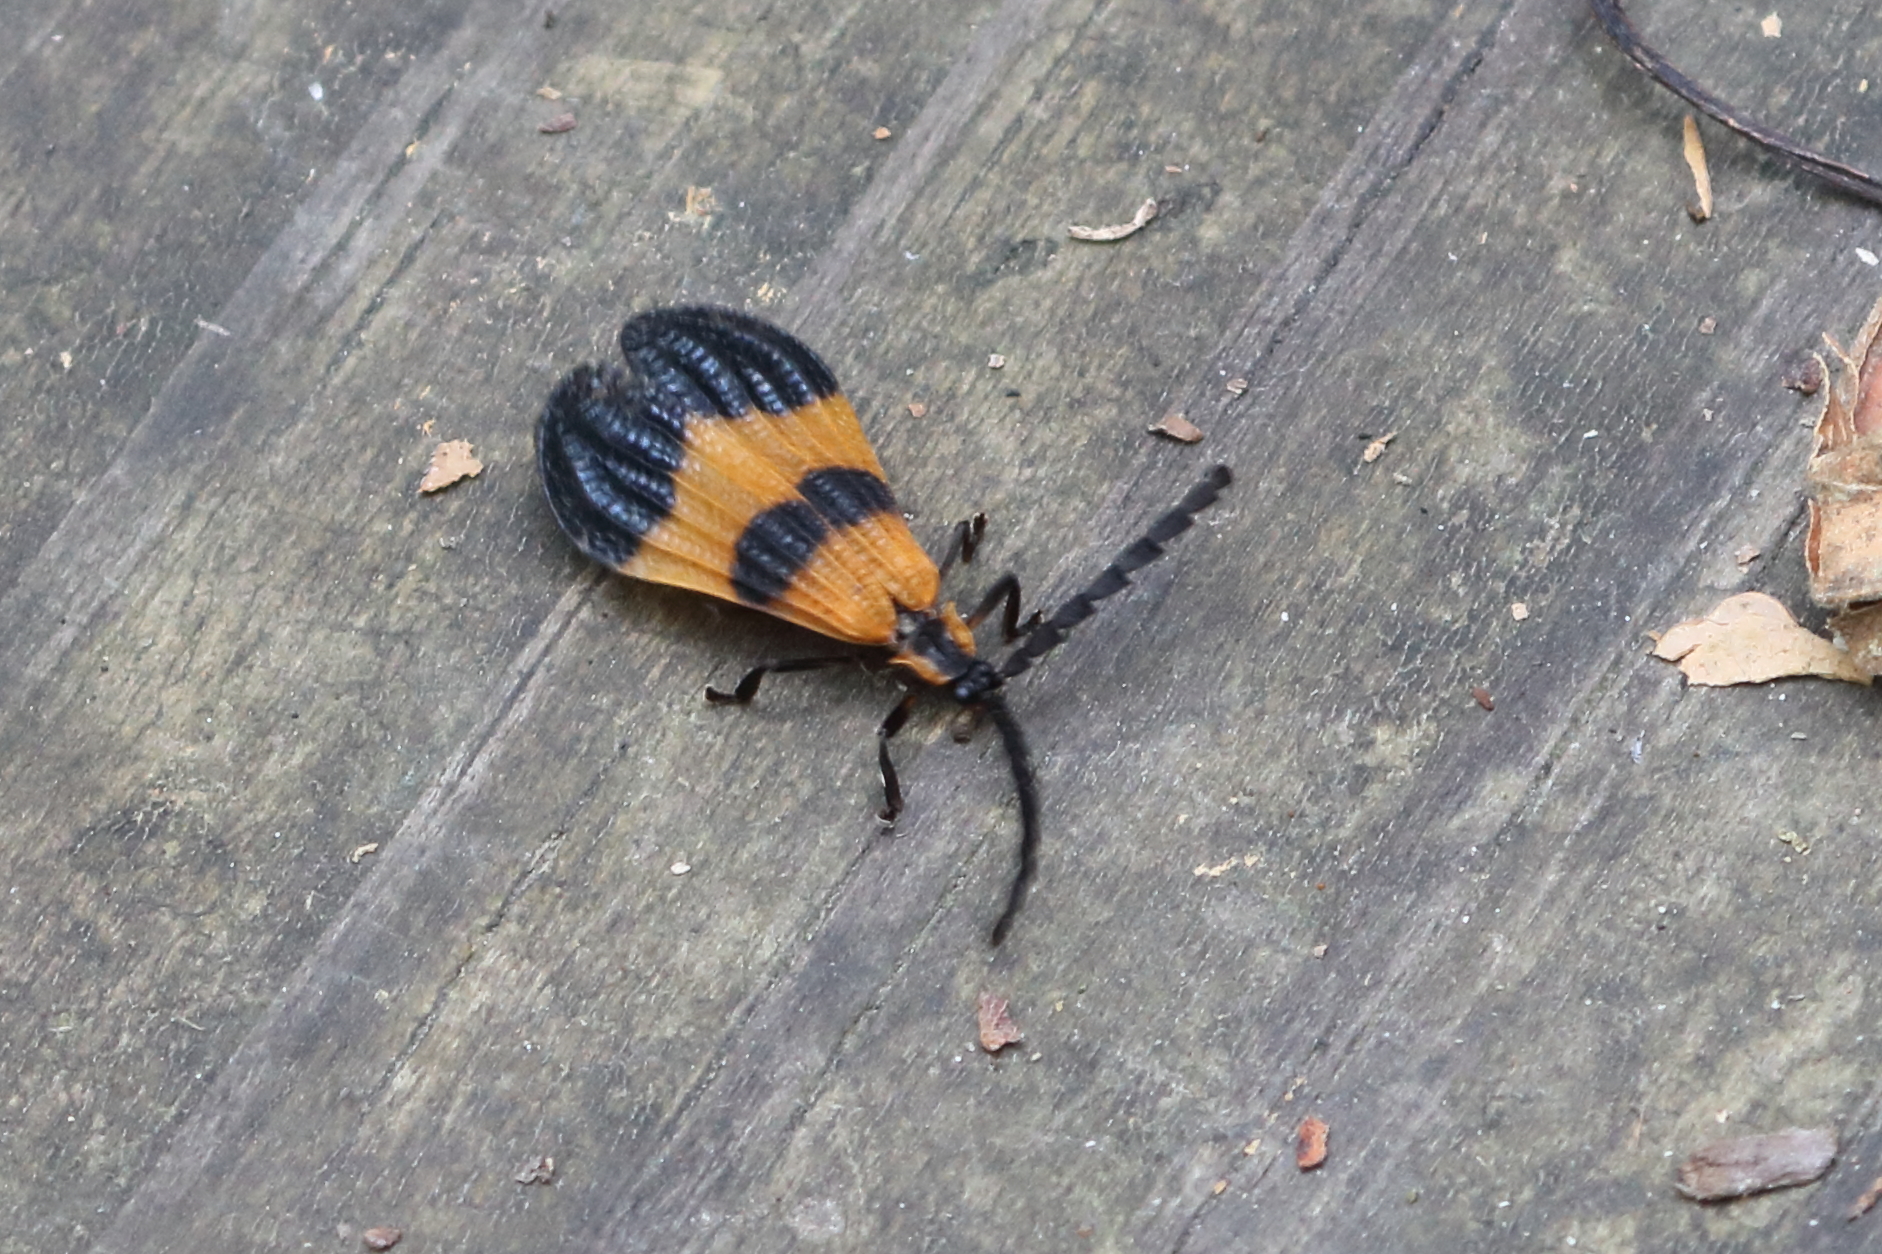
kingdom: Animalia
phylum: Arthropoda
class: Insecta
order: Coleoptera
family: Lycidae
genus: Calopteron
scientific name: Calopteron terminale
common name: End band net-winged beetle
